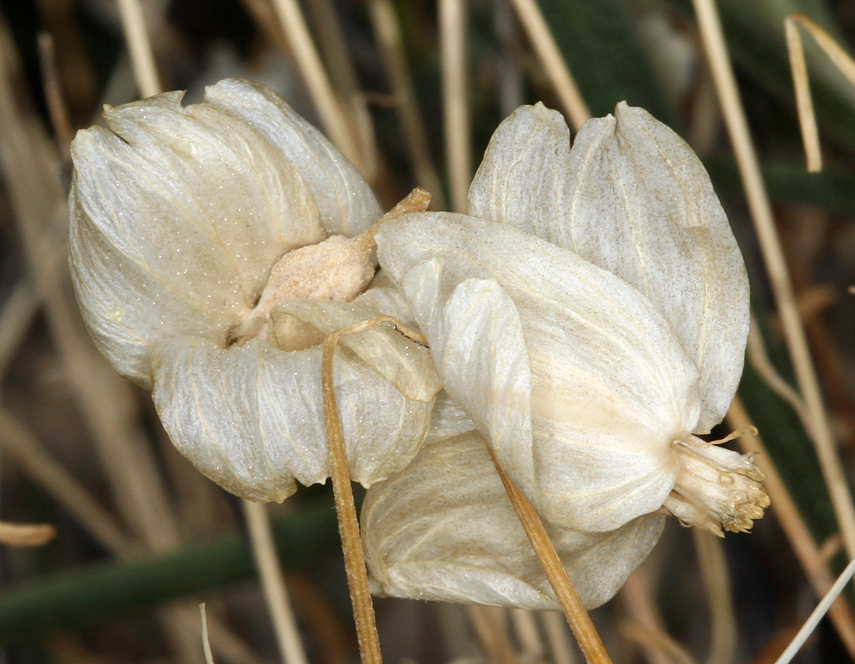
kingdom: Plantae
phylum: Tracheophyta
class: Magnoliopsida
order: Asterales
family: Asteraceae
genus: Psilostrophe
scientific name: Psilostrophe cooperi
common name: White-stem paper-flower
